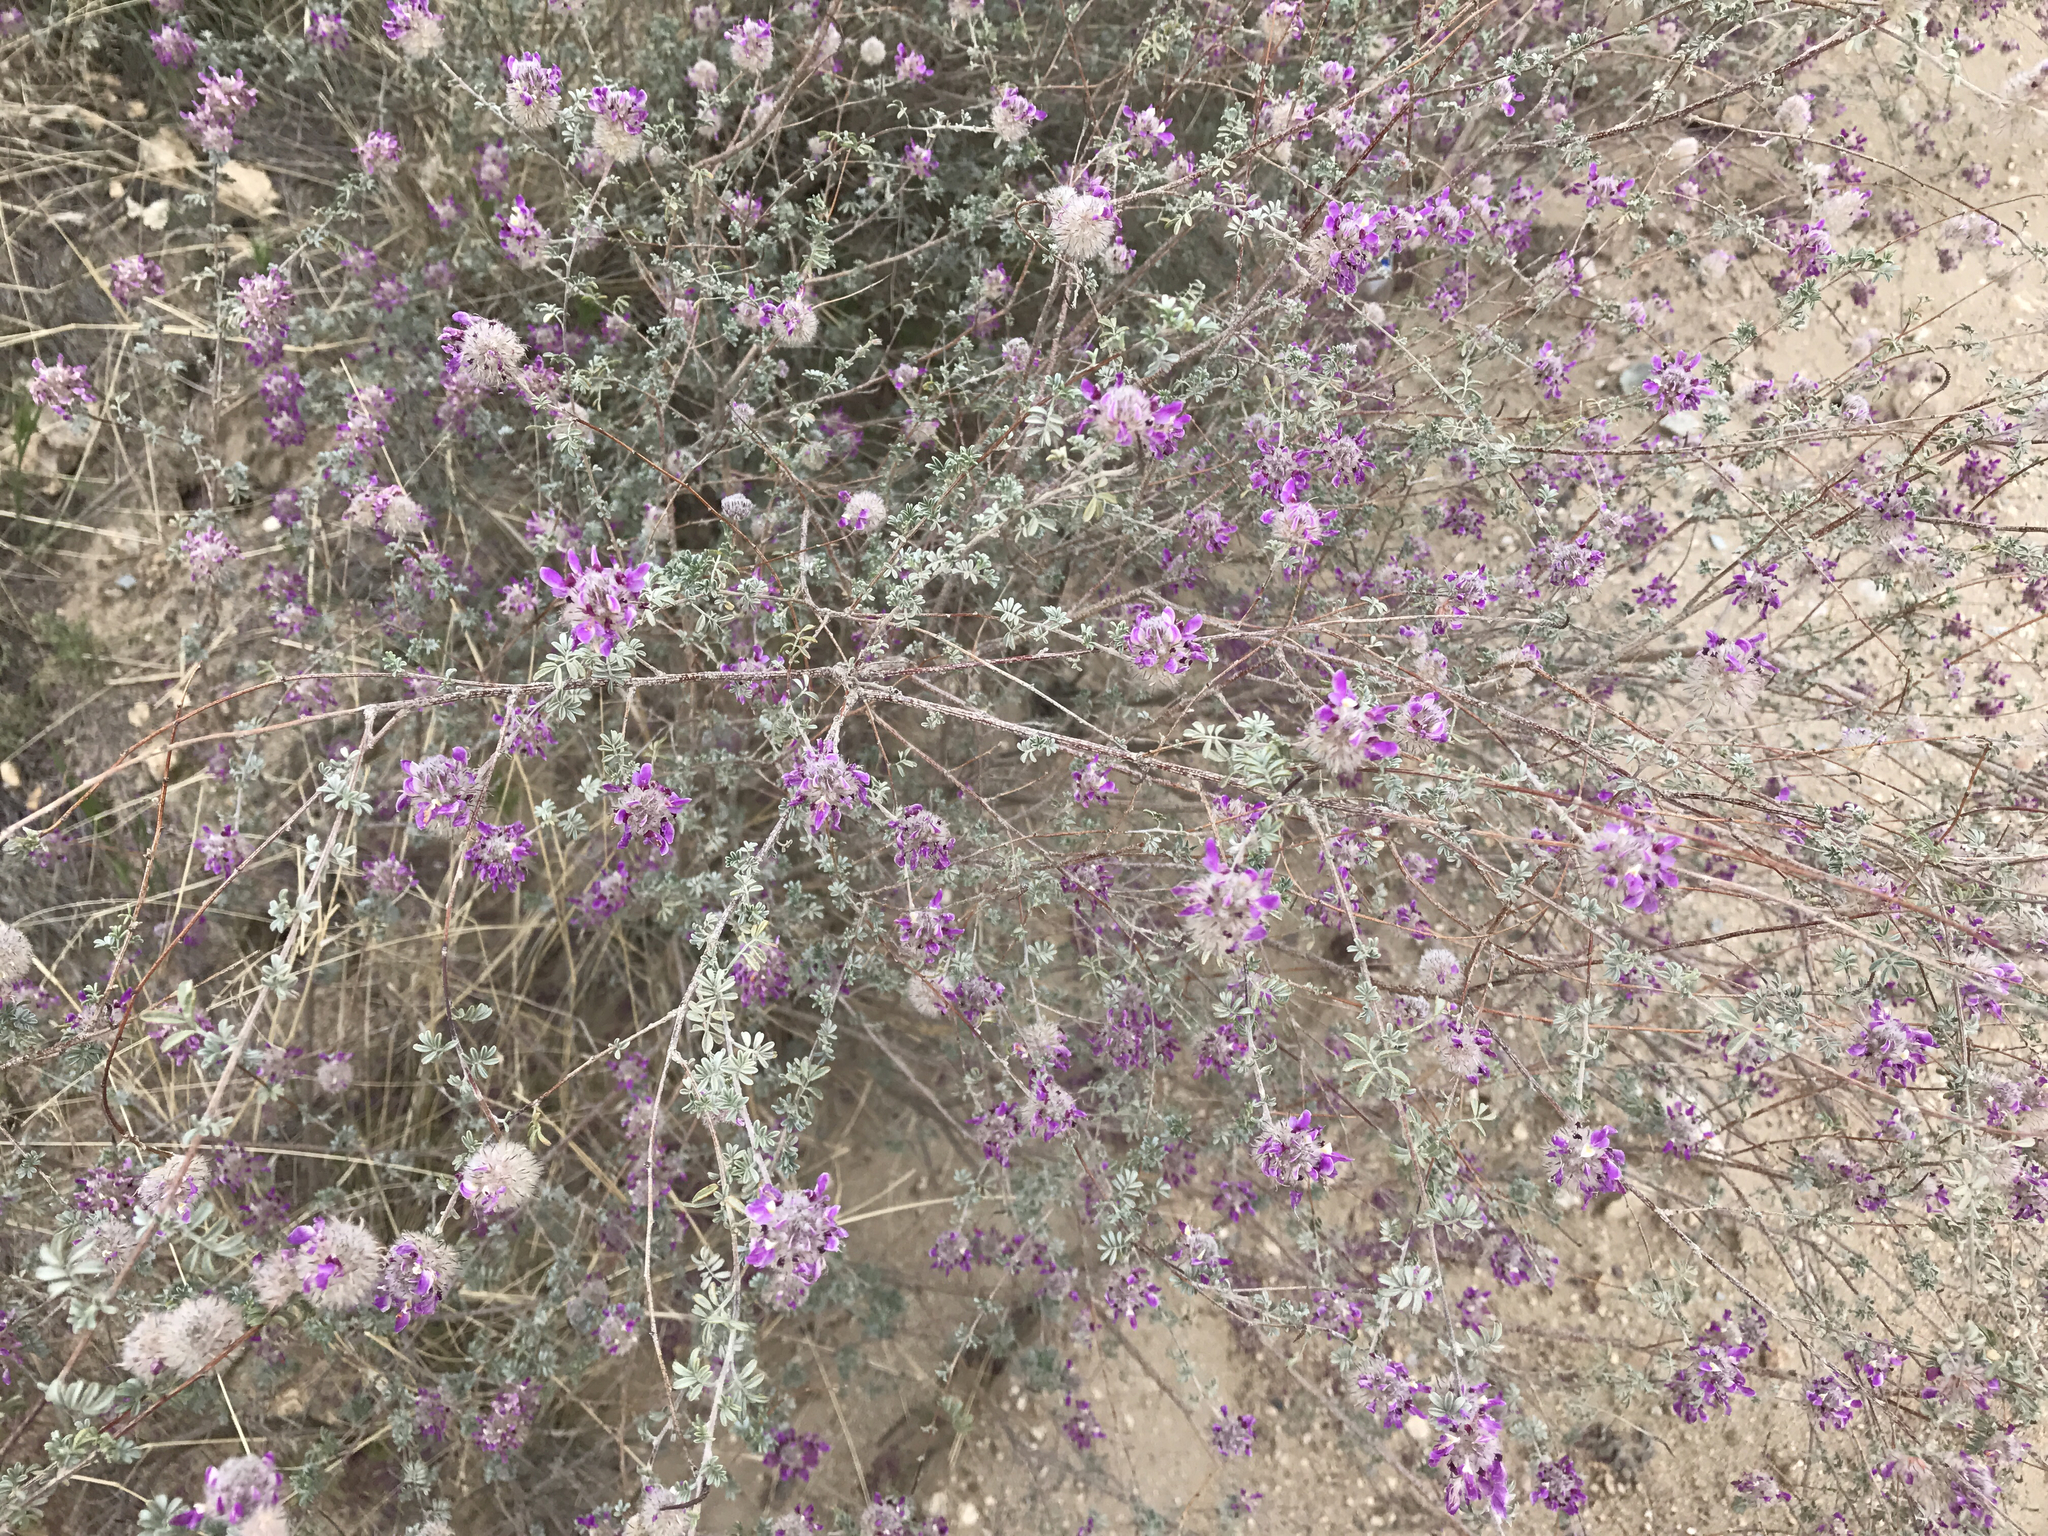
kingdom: Plantae
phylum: Tracheophyta
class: Magnoliopsida
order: Fabales
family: Fabaceae
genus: Dalea
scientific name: Dalea pulchra
